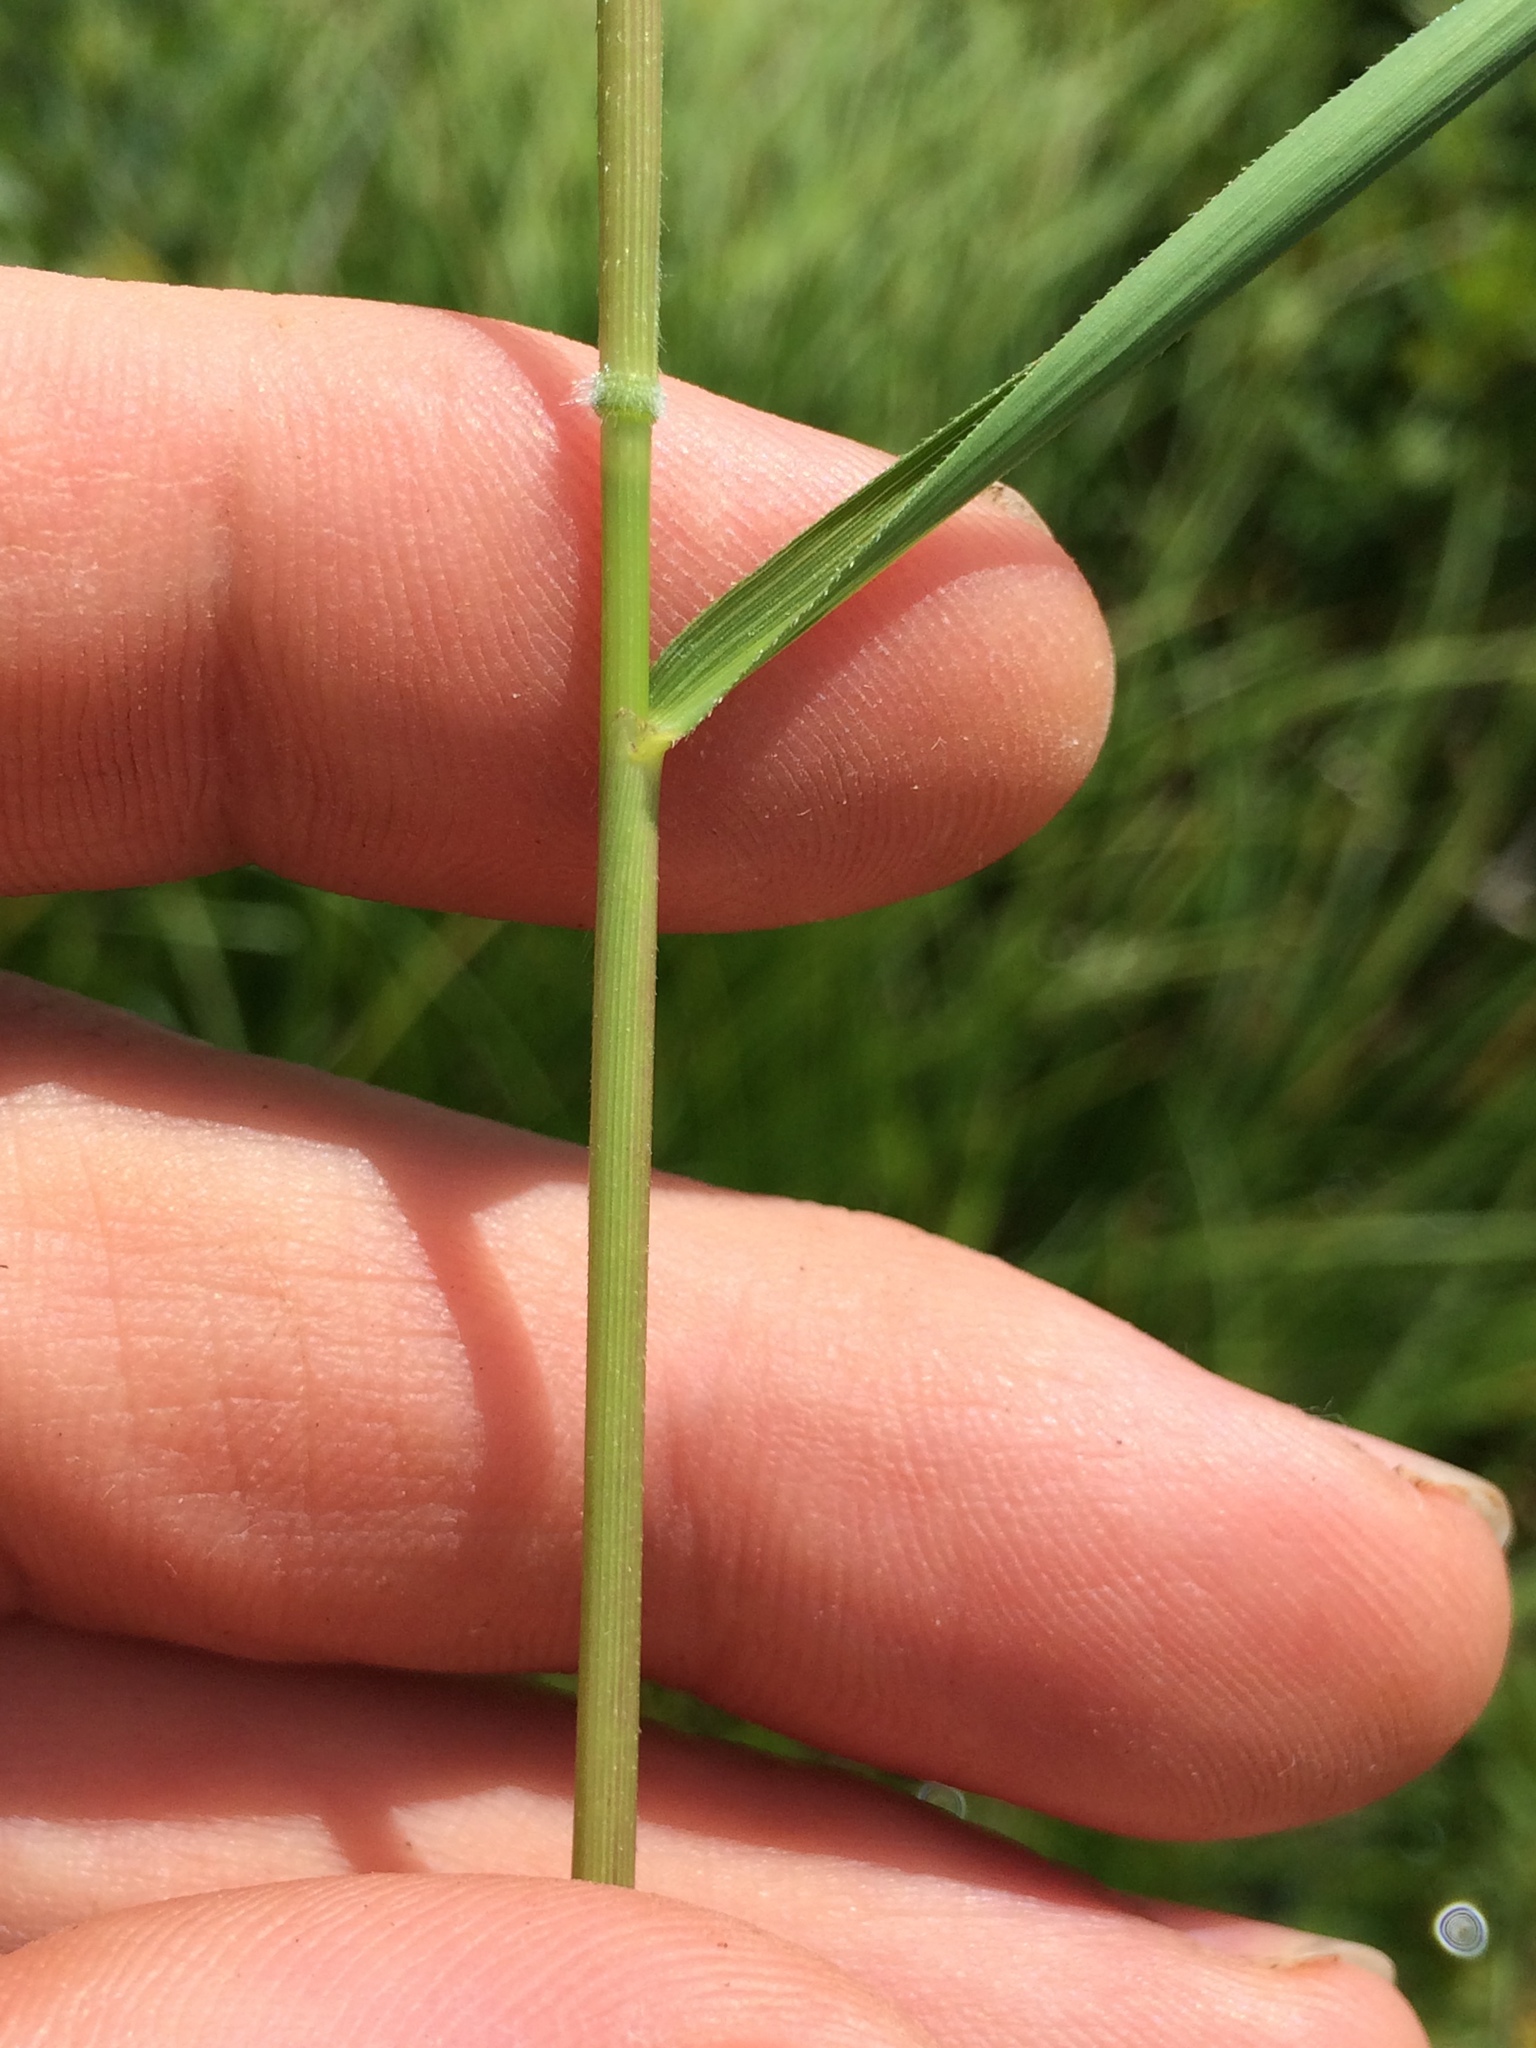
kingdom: Plantae
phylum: Tracheophyta
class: Liliopsida
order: Poales
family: Poaceae
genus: Leersia
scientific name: Leersia oryzoides
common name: Cut-grass
